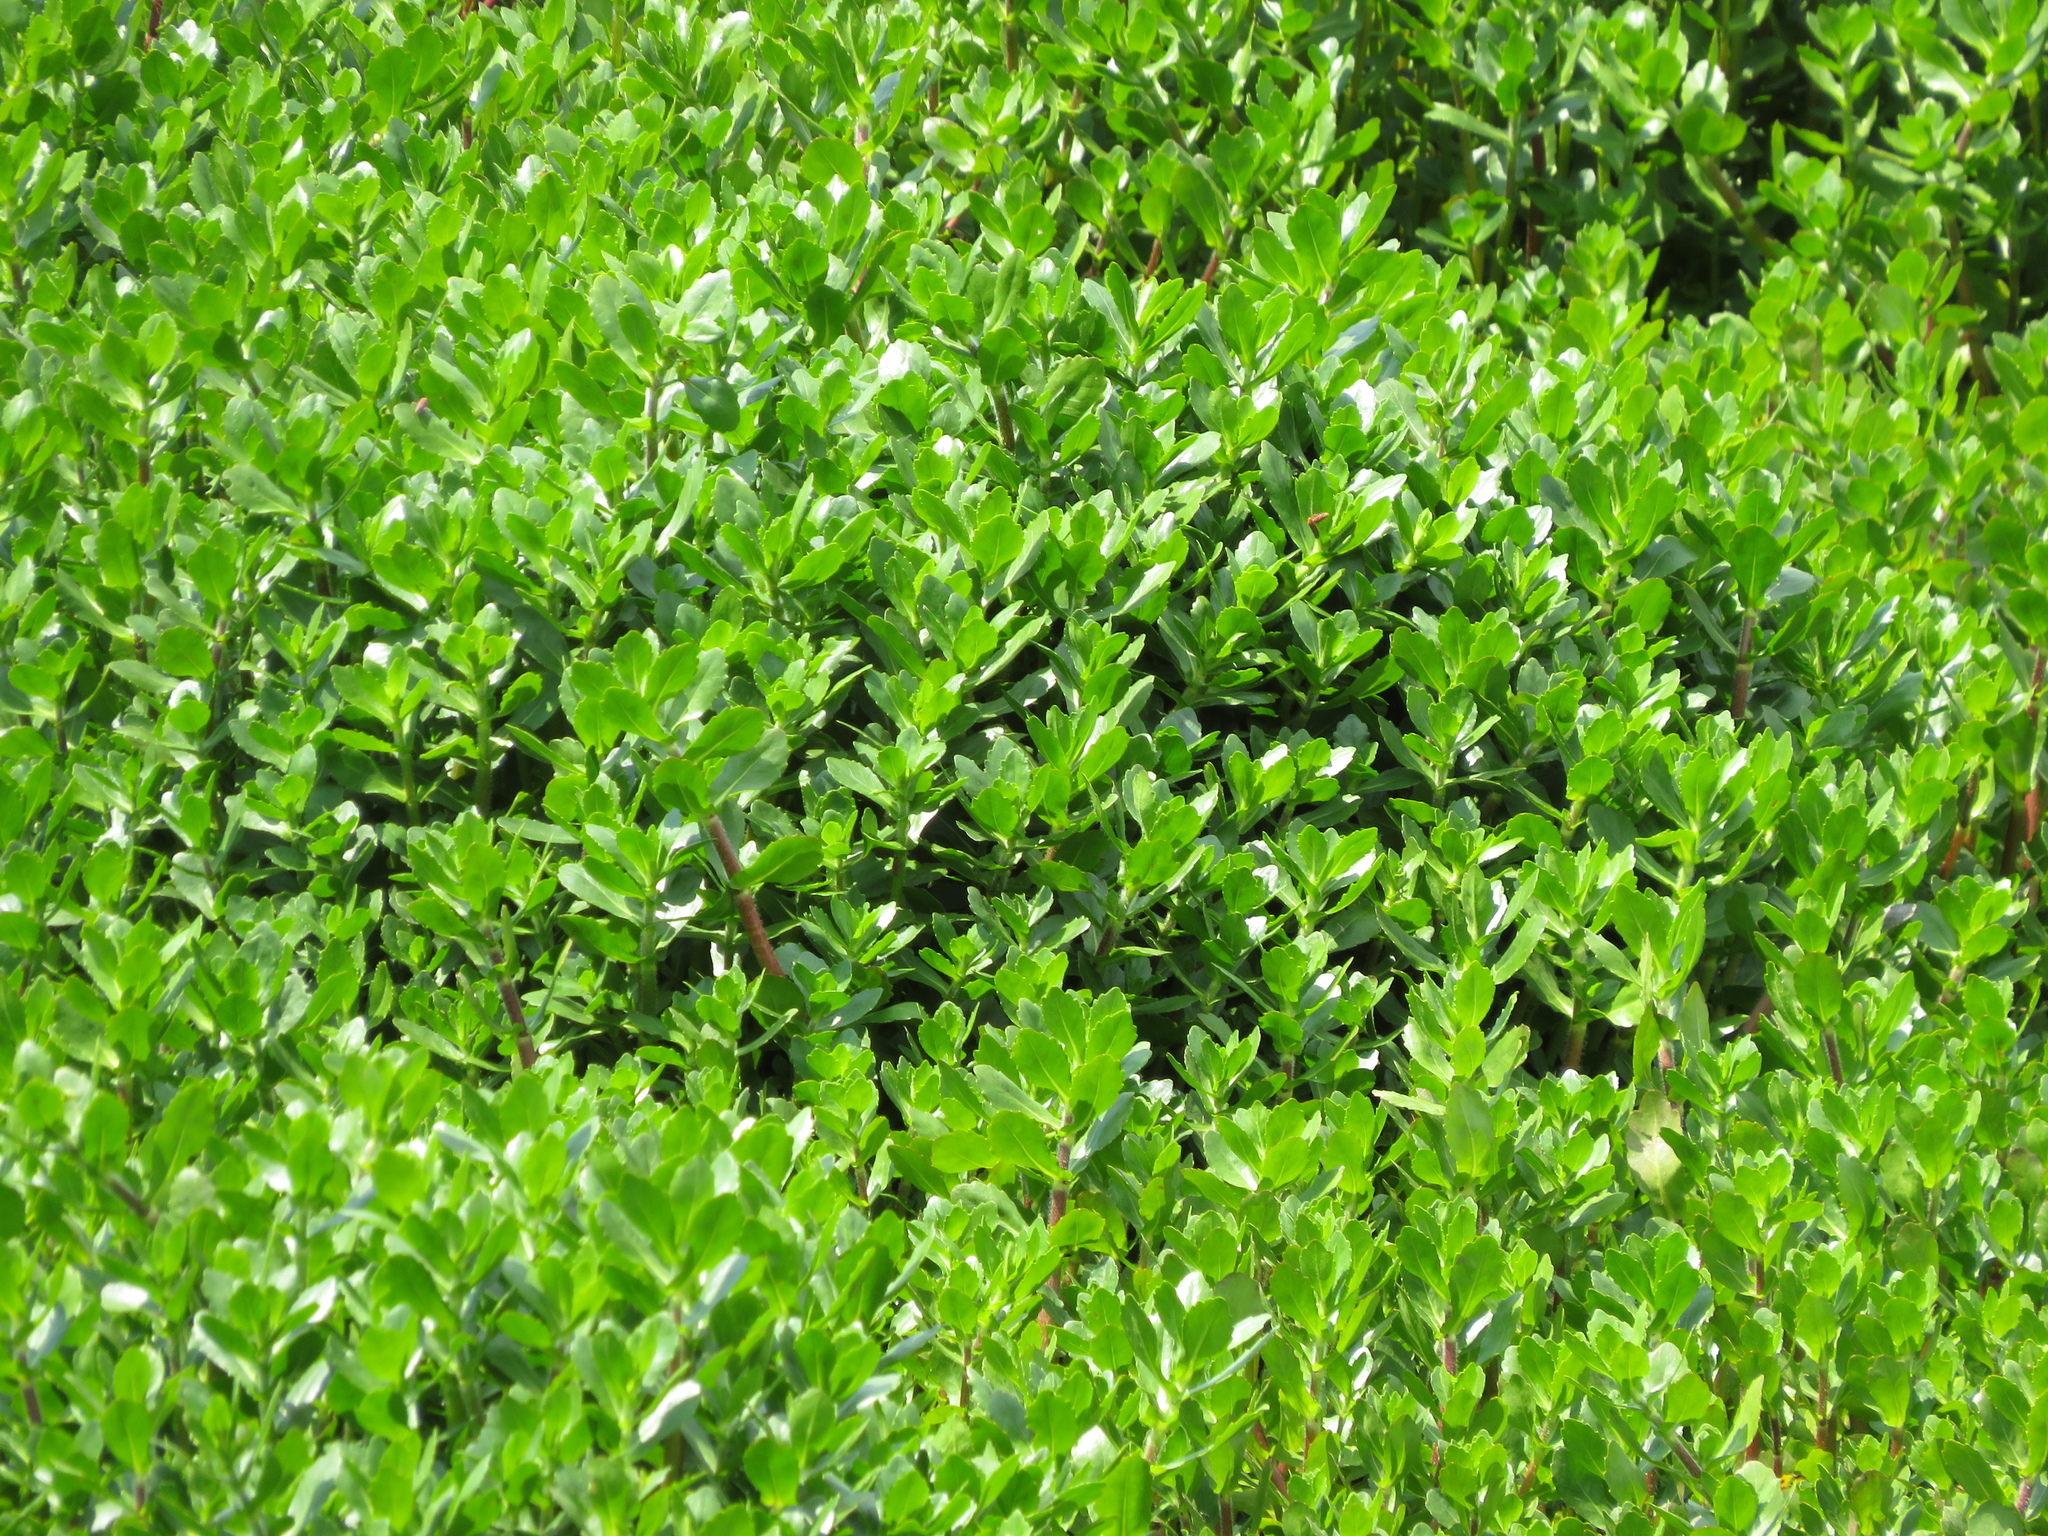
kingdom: Plantae
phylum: Tracheophyta
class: Magnoliopsida
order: Asterales
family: Asteraceae
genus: Enydra
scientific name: Enydra fluctuans
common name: Buffalo spinach
